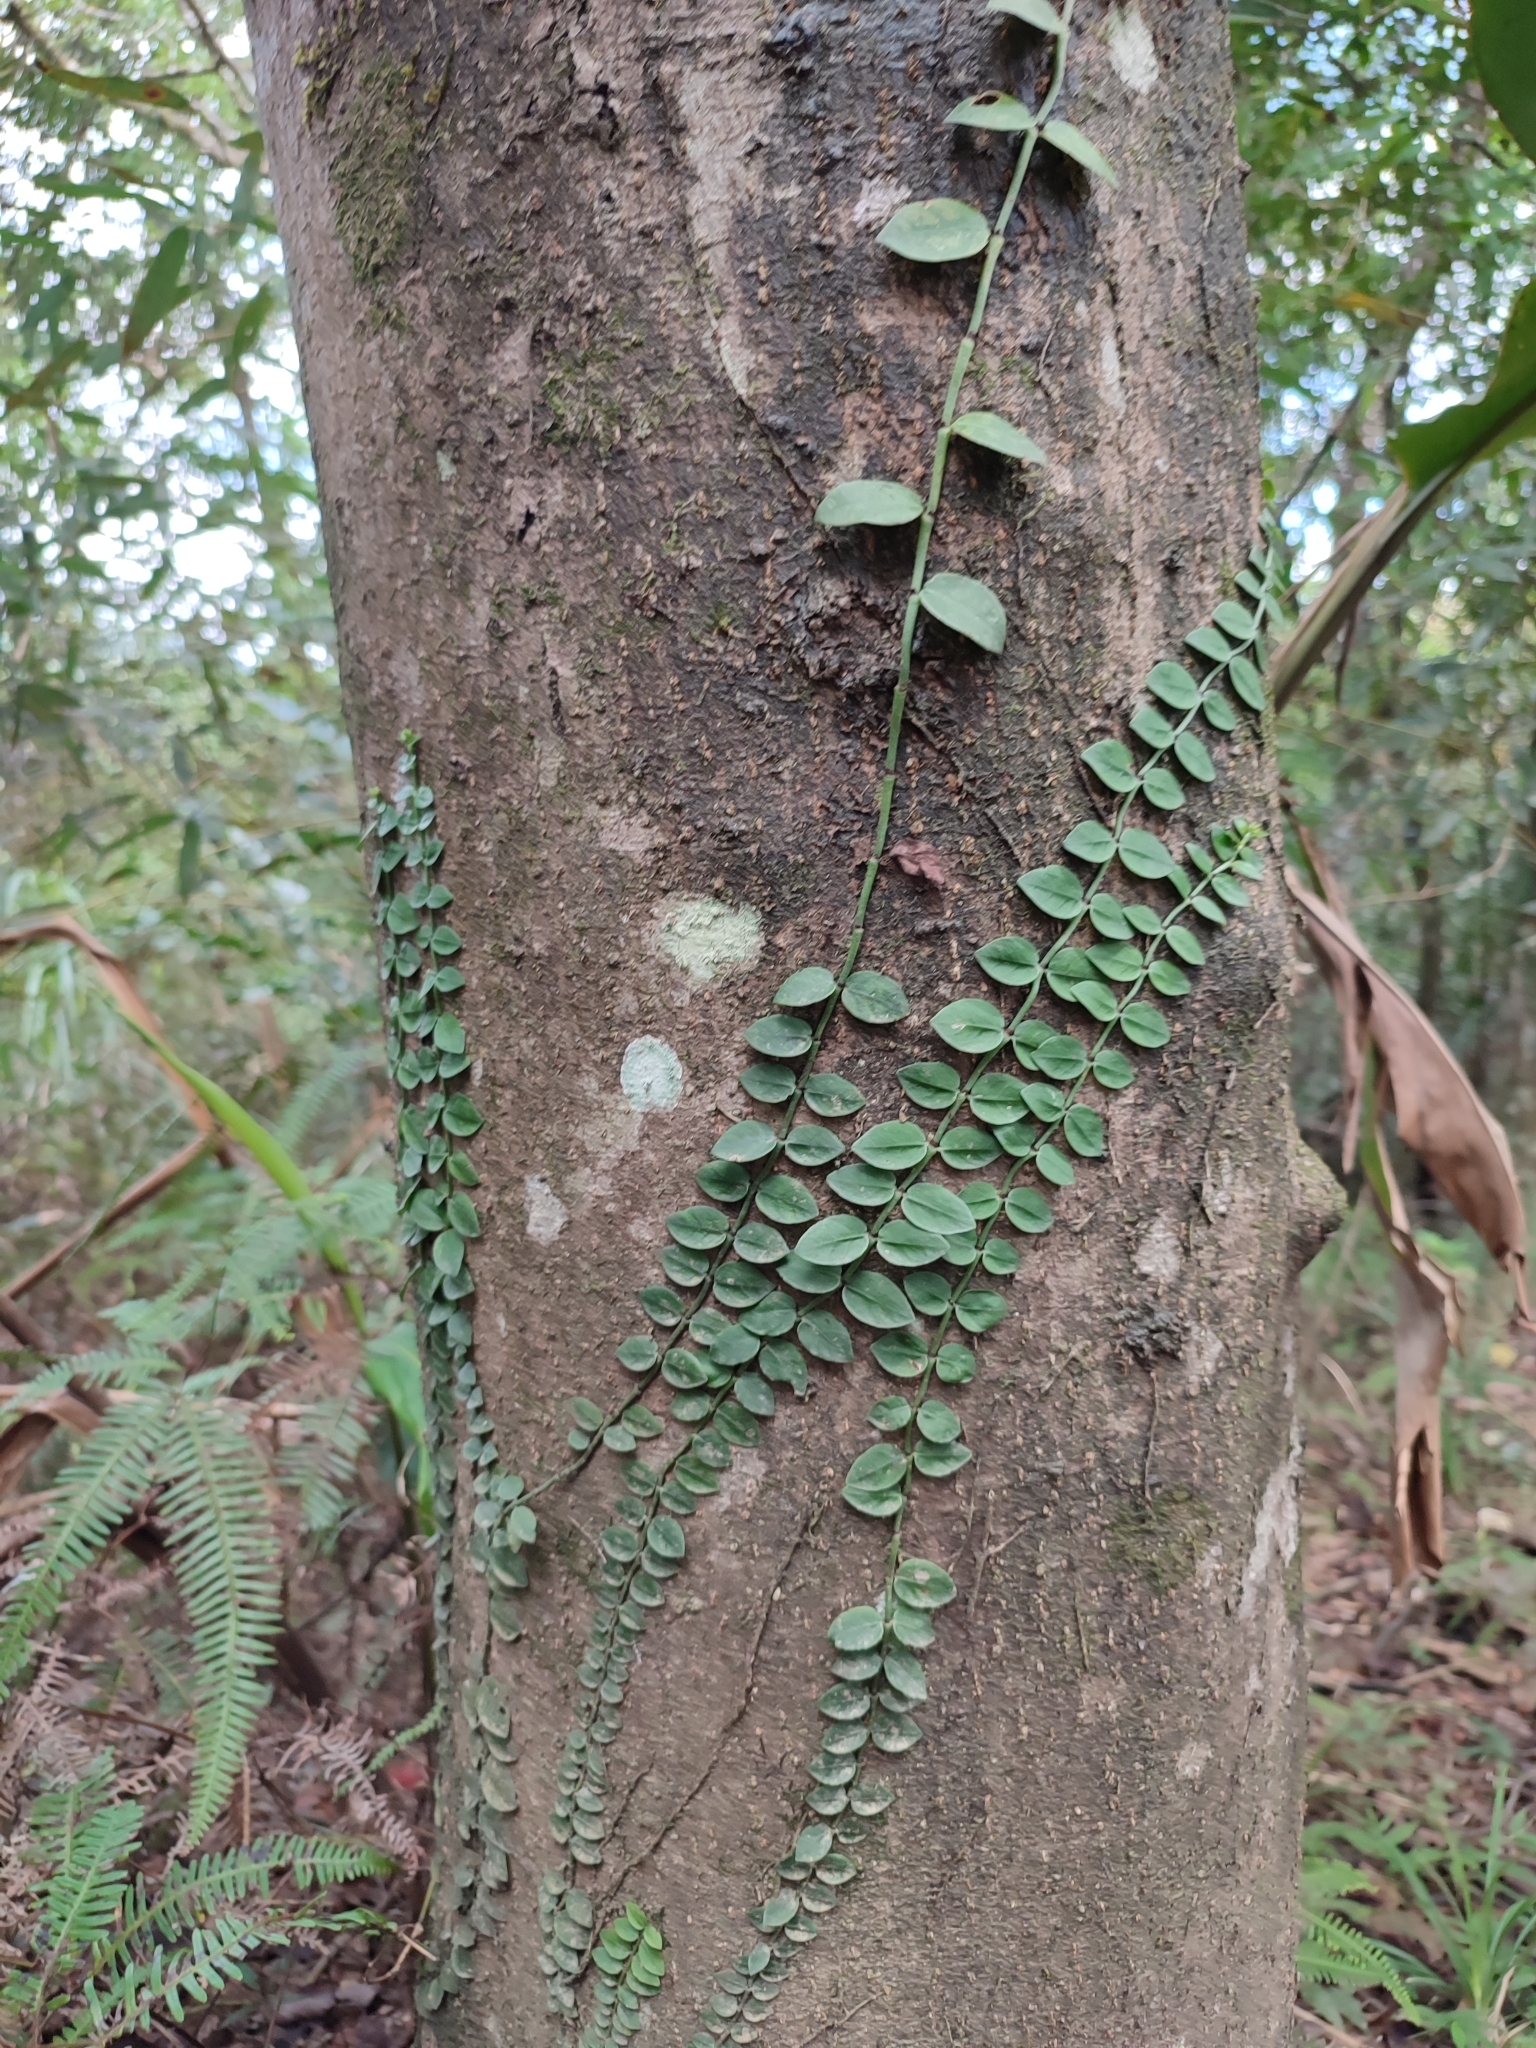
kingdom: Plantae
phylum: Tracheophyta
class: Magnoliopsida
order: Gentianales
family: Rubiaceae
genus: Psychotria
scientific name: Psychotria serpens
